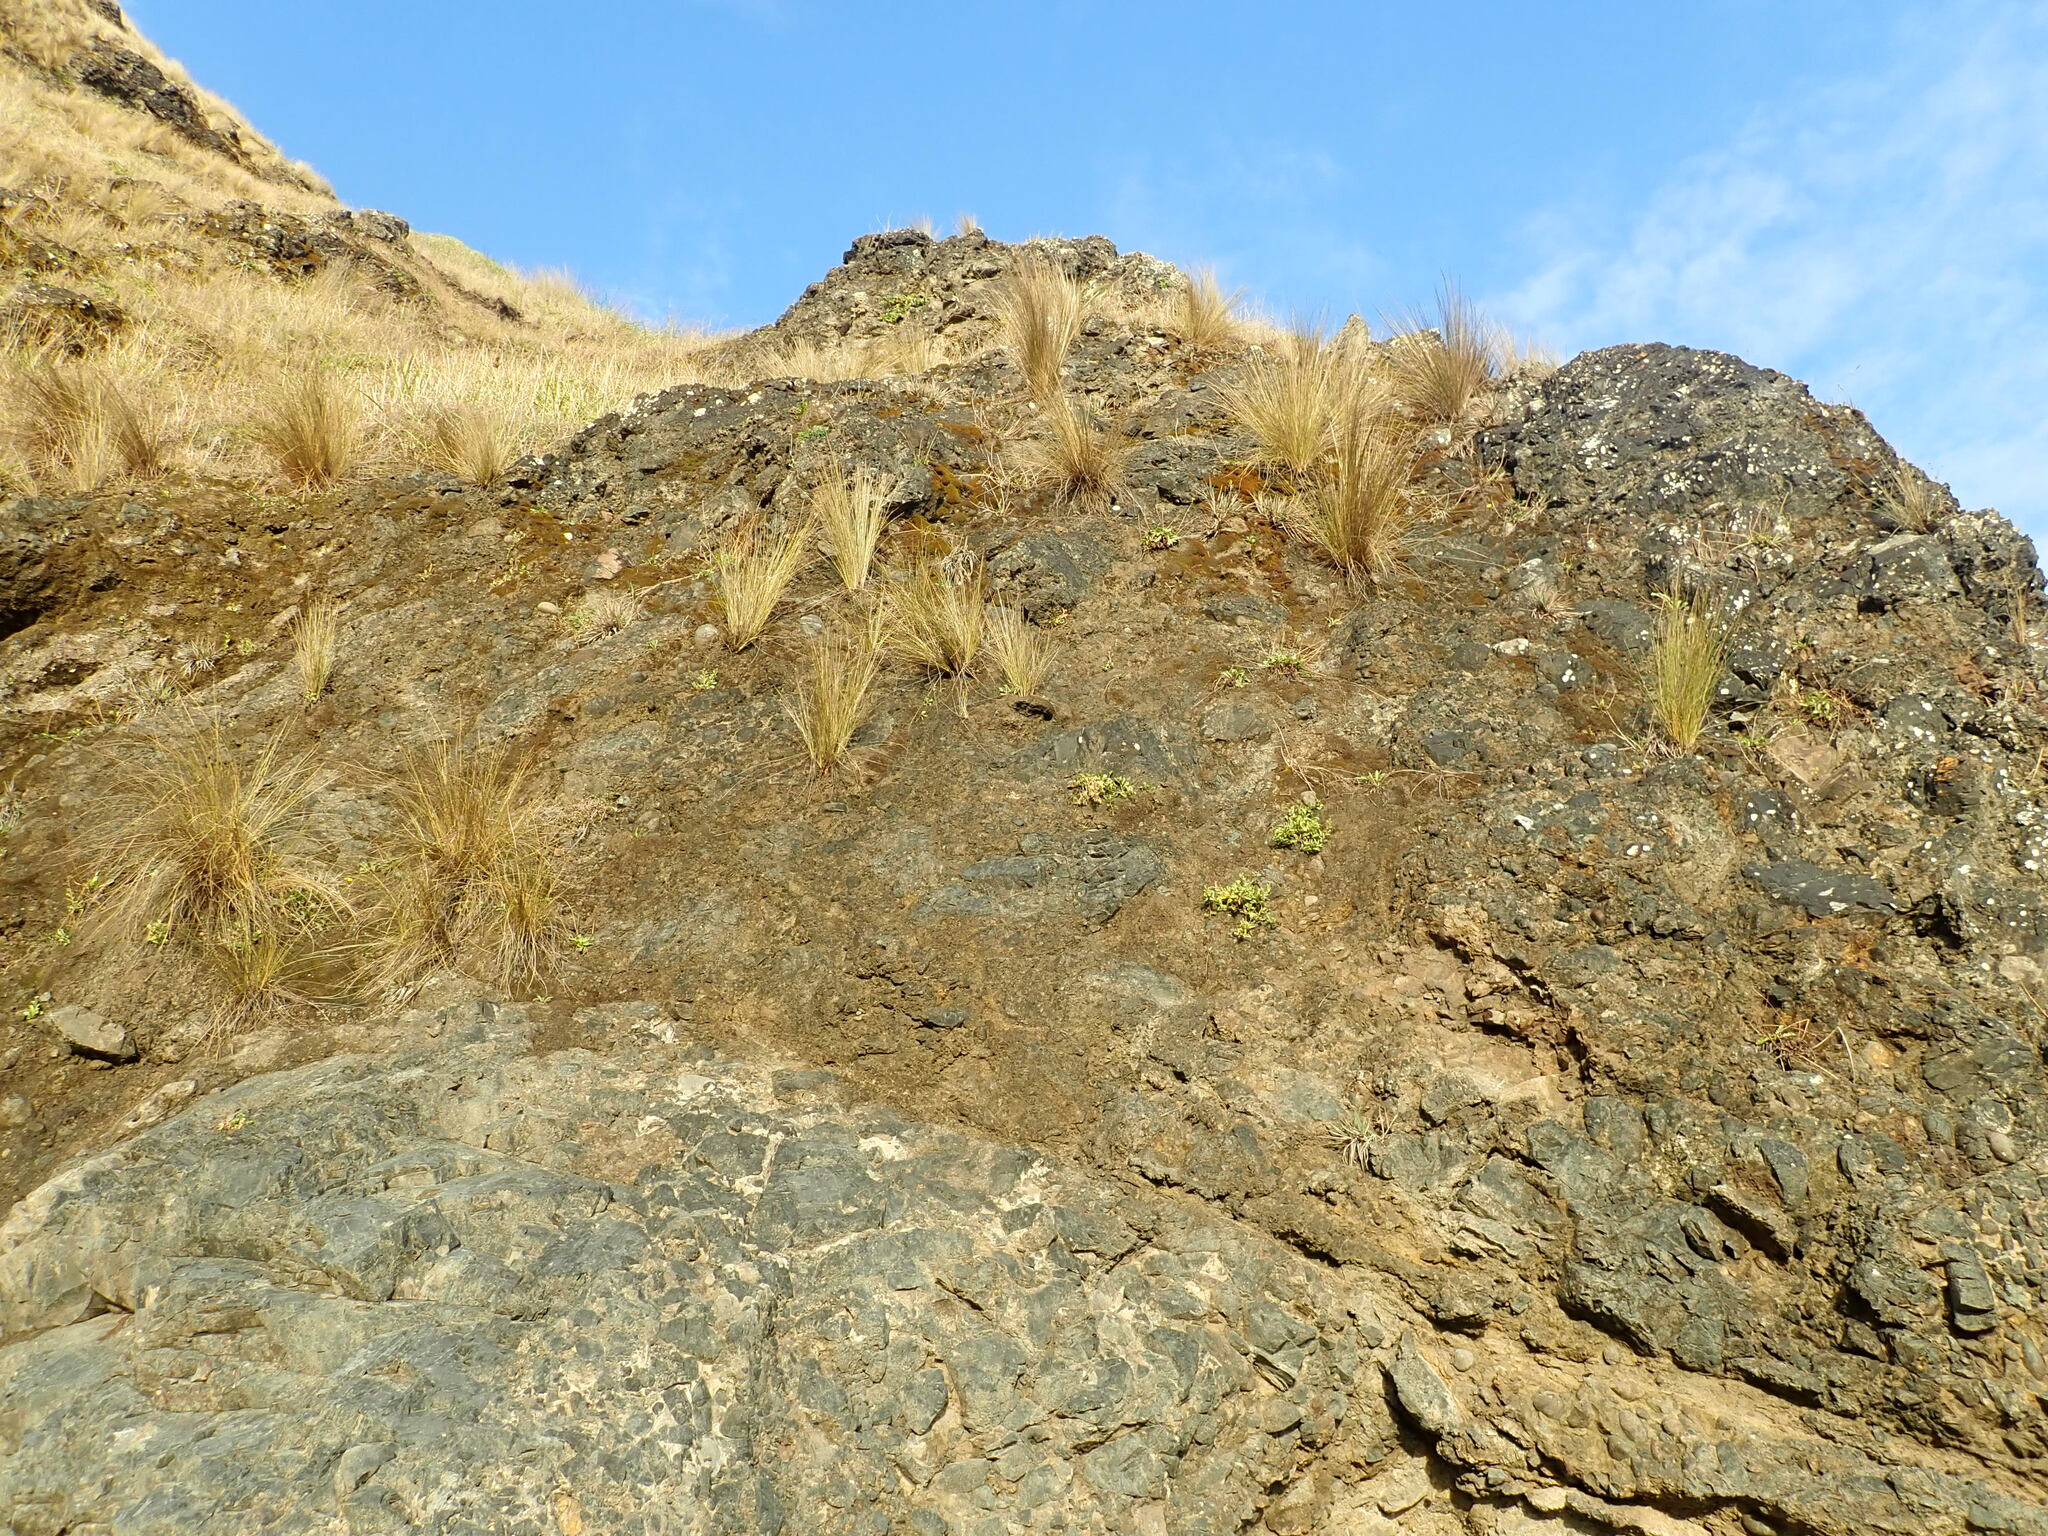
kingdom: Plantae
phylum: Tracheophyta
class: Liliopsida
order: Poales
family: Poaceae
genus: Poa
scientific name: Poa billardierei
